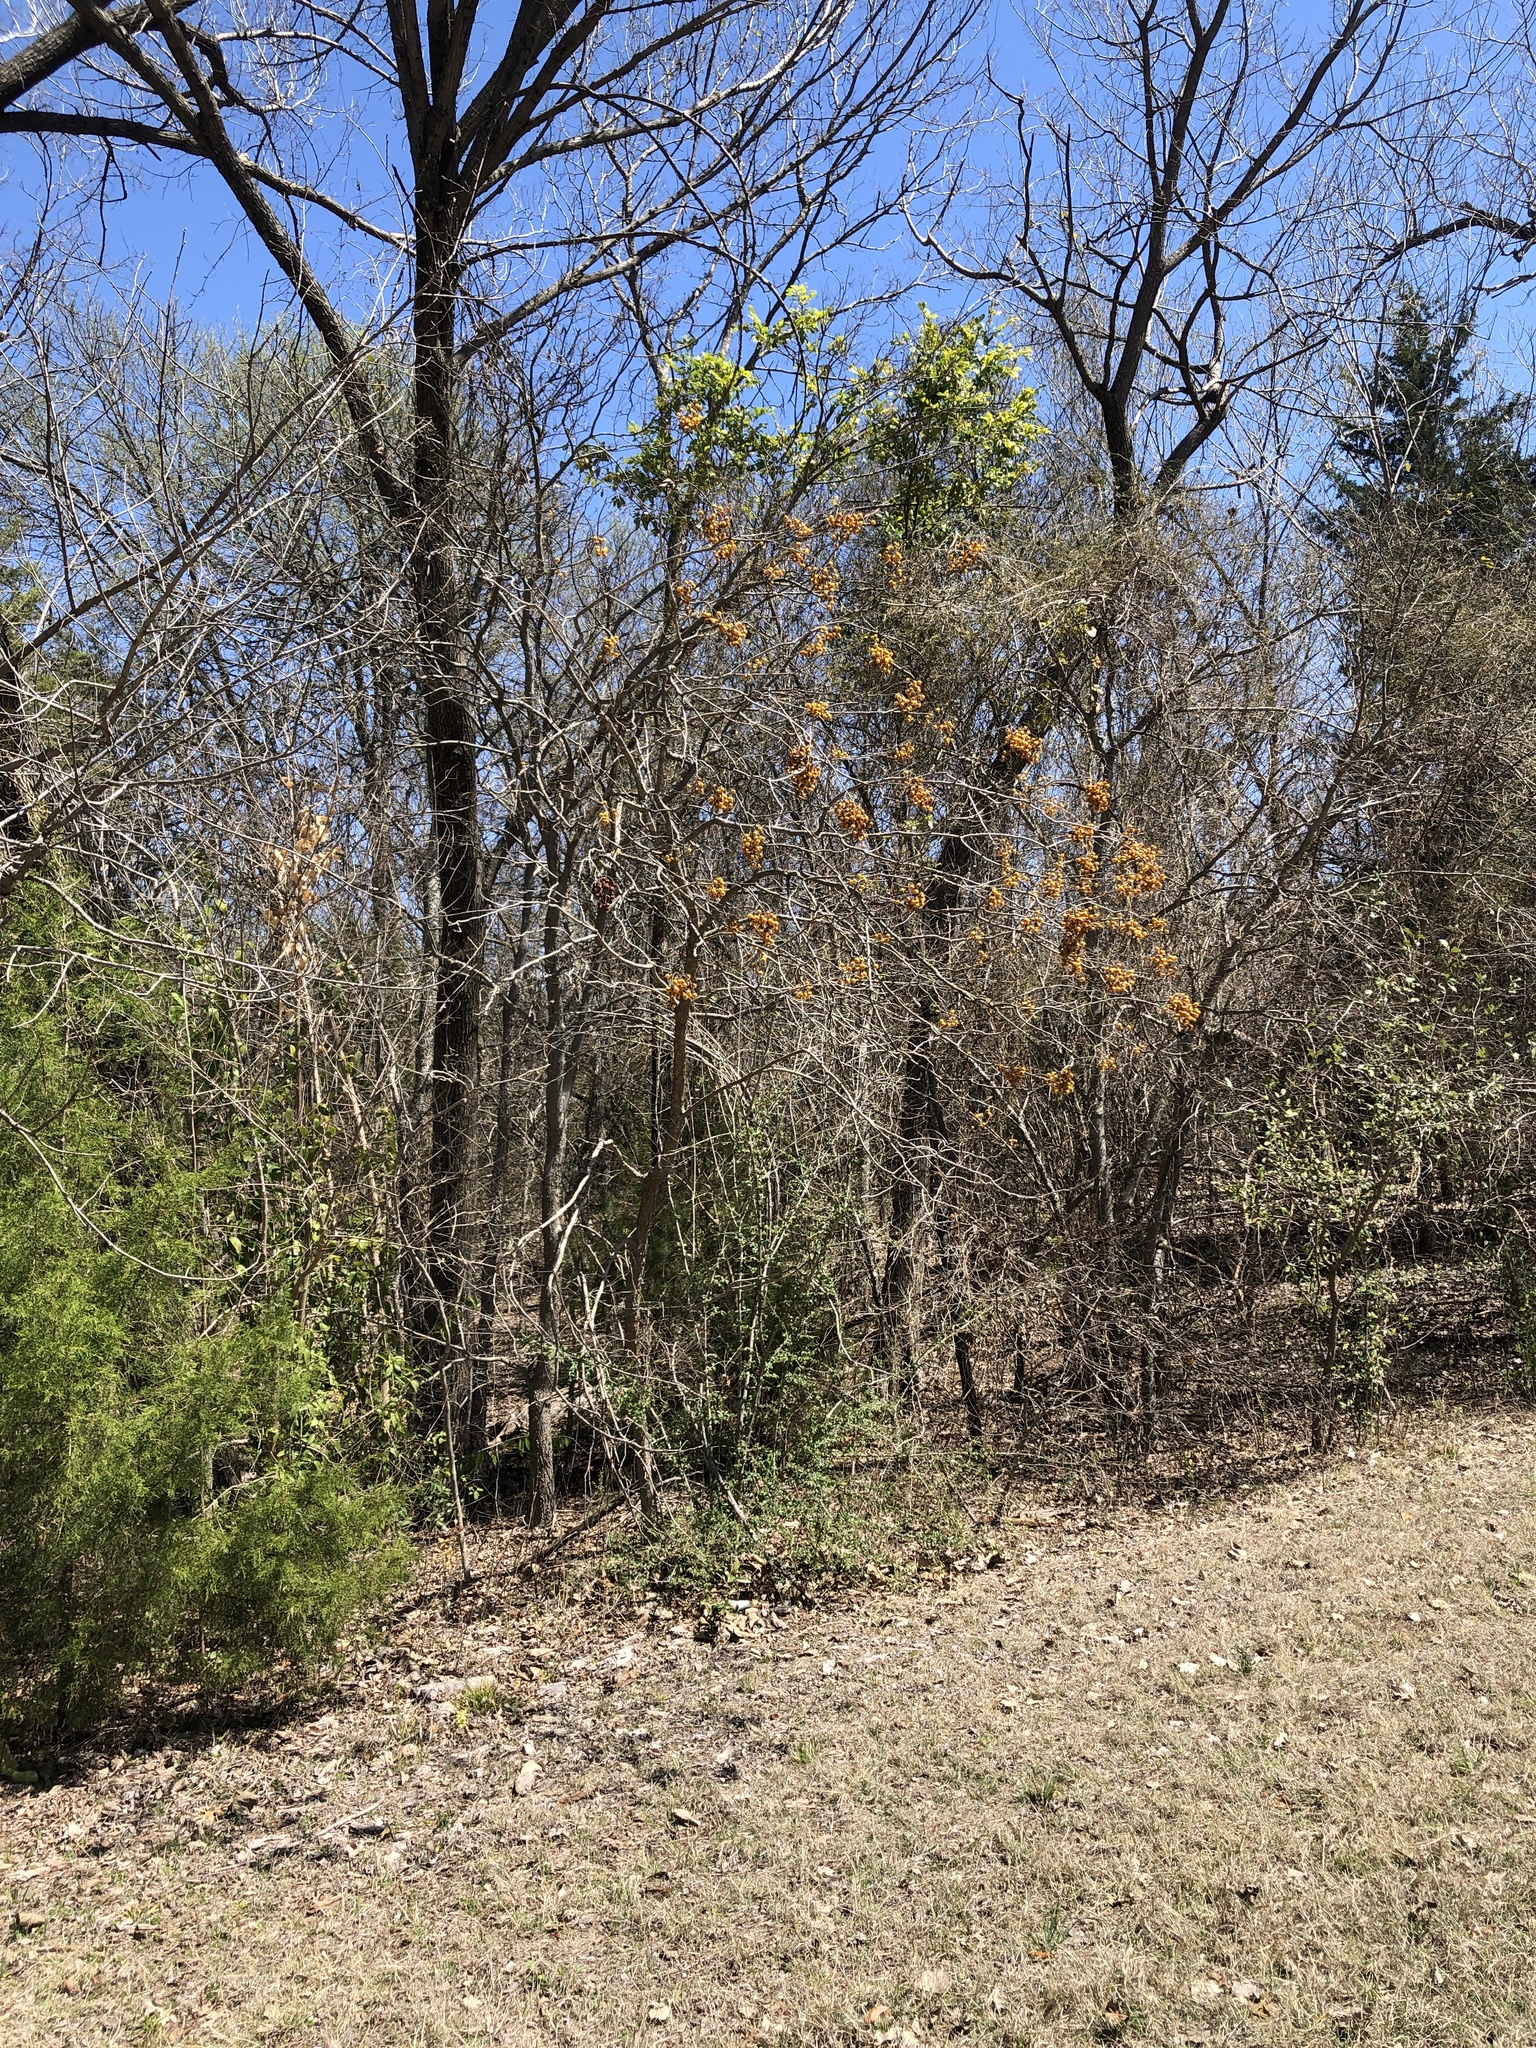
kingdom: Plantae
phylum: Tracheophyta
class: Magnoliopsida
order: Sapindales
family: Sapindaceae
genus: Sapindus
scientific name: Sapindus drummondii
